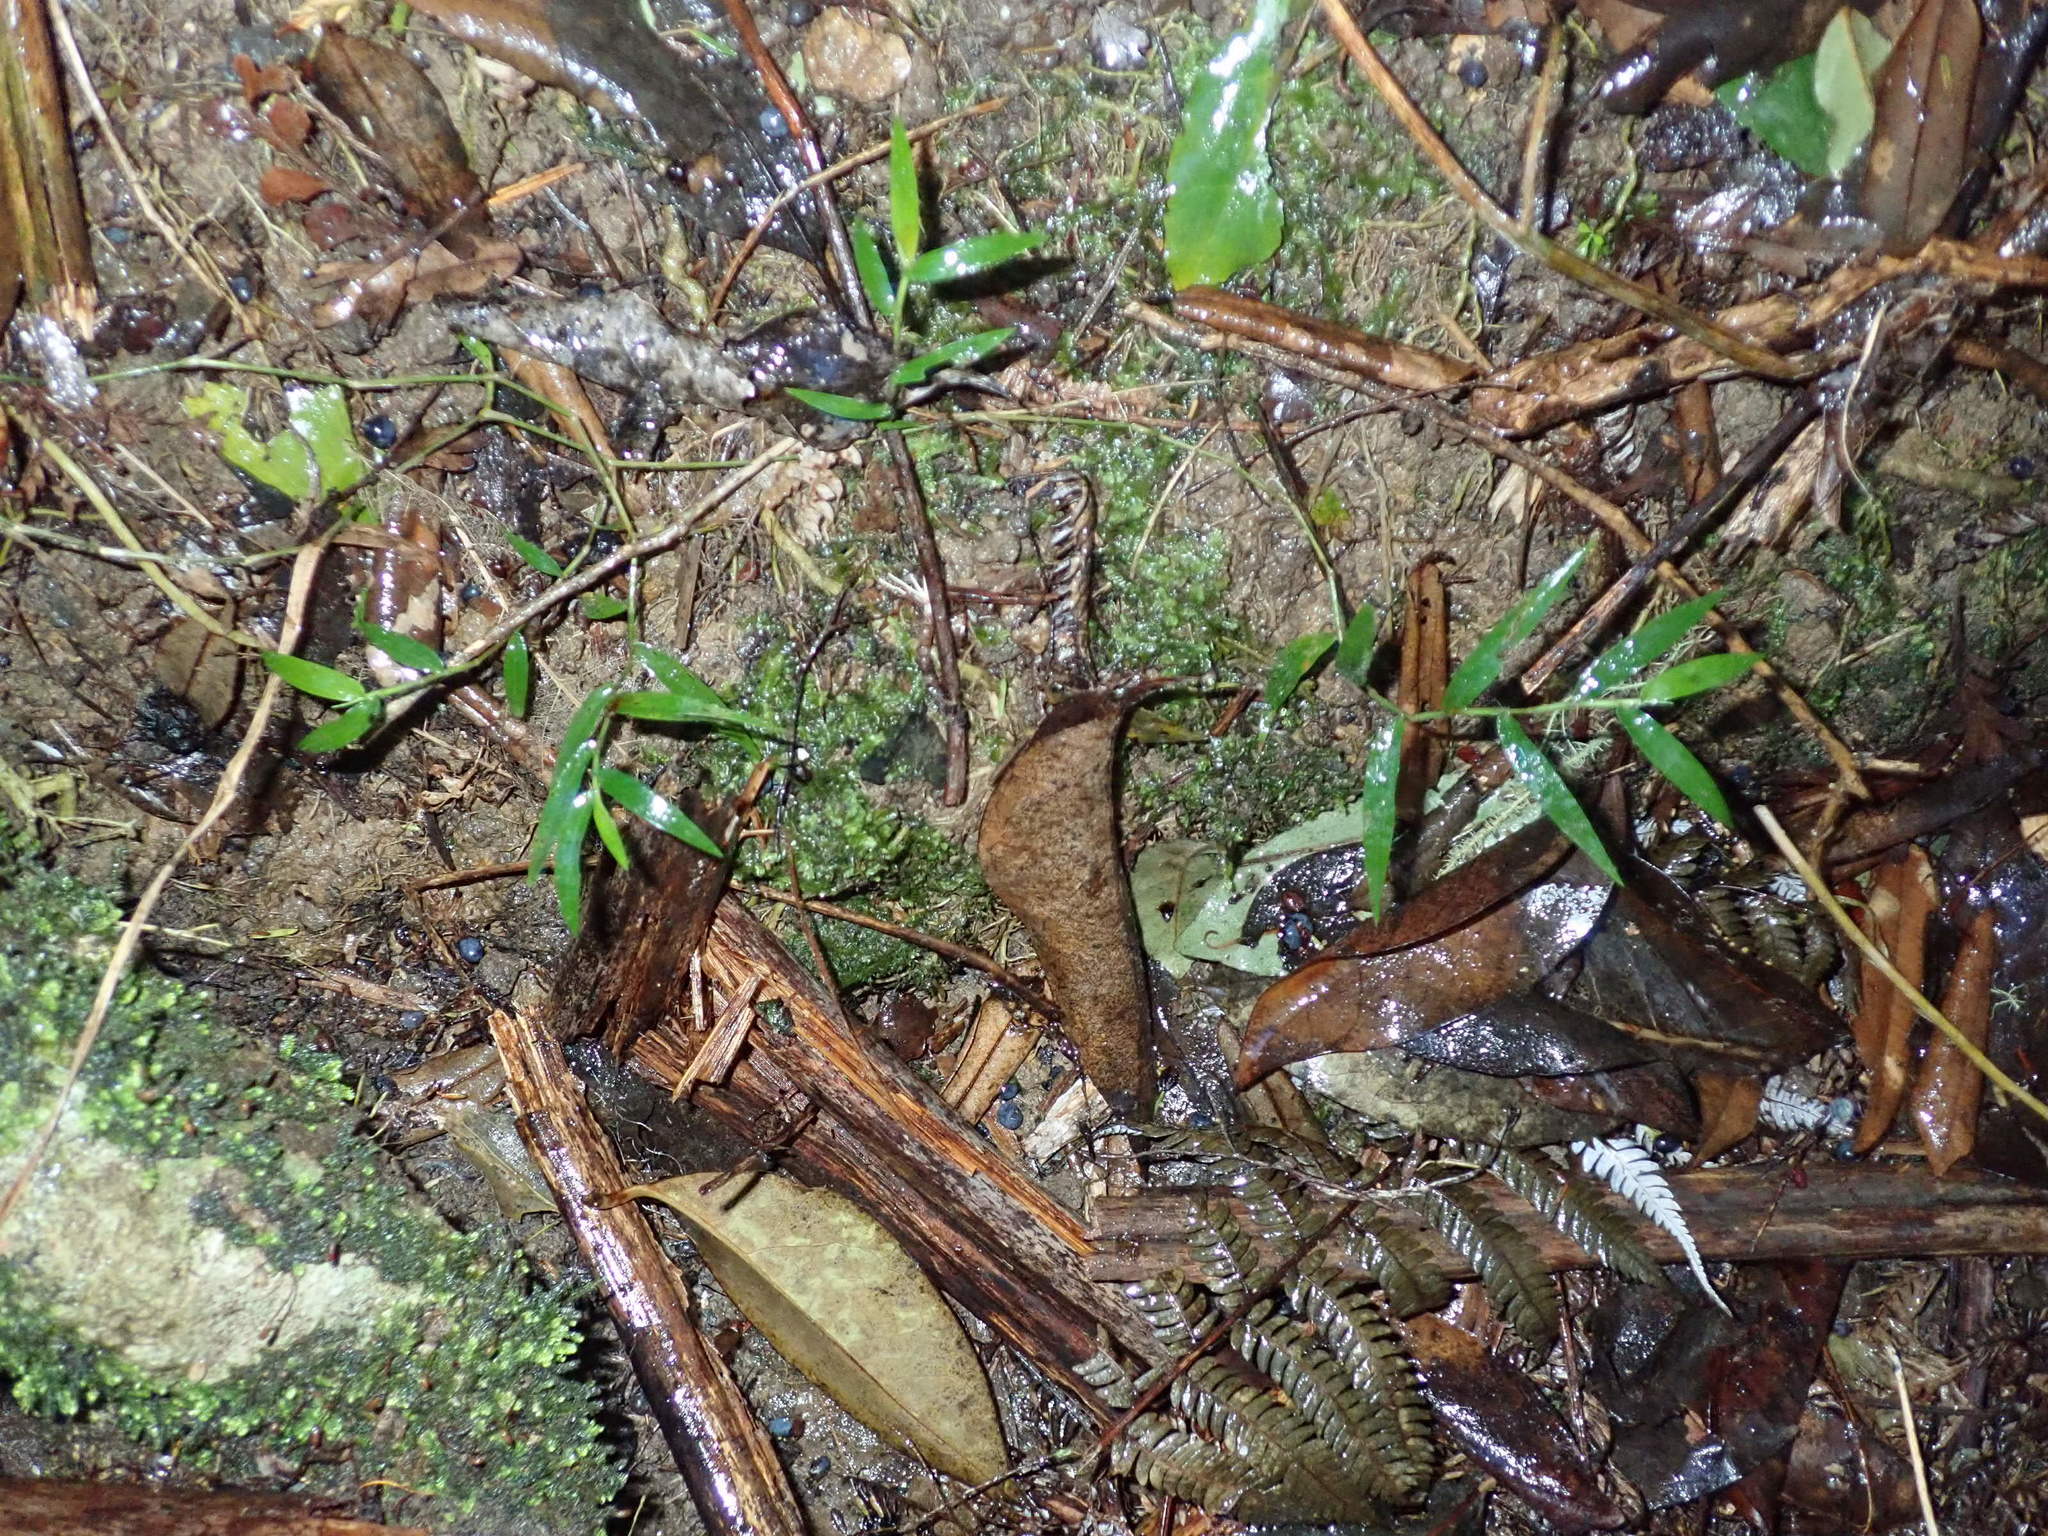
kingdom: Plantae
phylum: Tracheophyta
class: Liliopsida
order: Poales
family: Poaceae
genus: Oplismenus
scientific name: Oplismenus hirtellus
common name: Basketgrass
